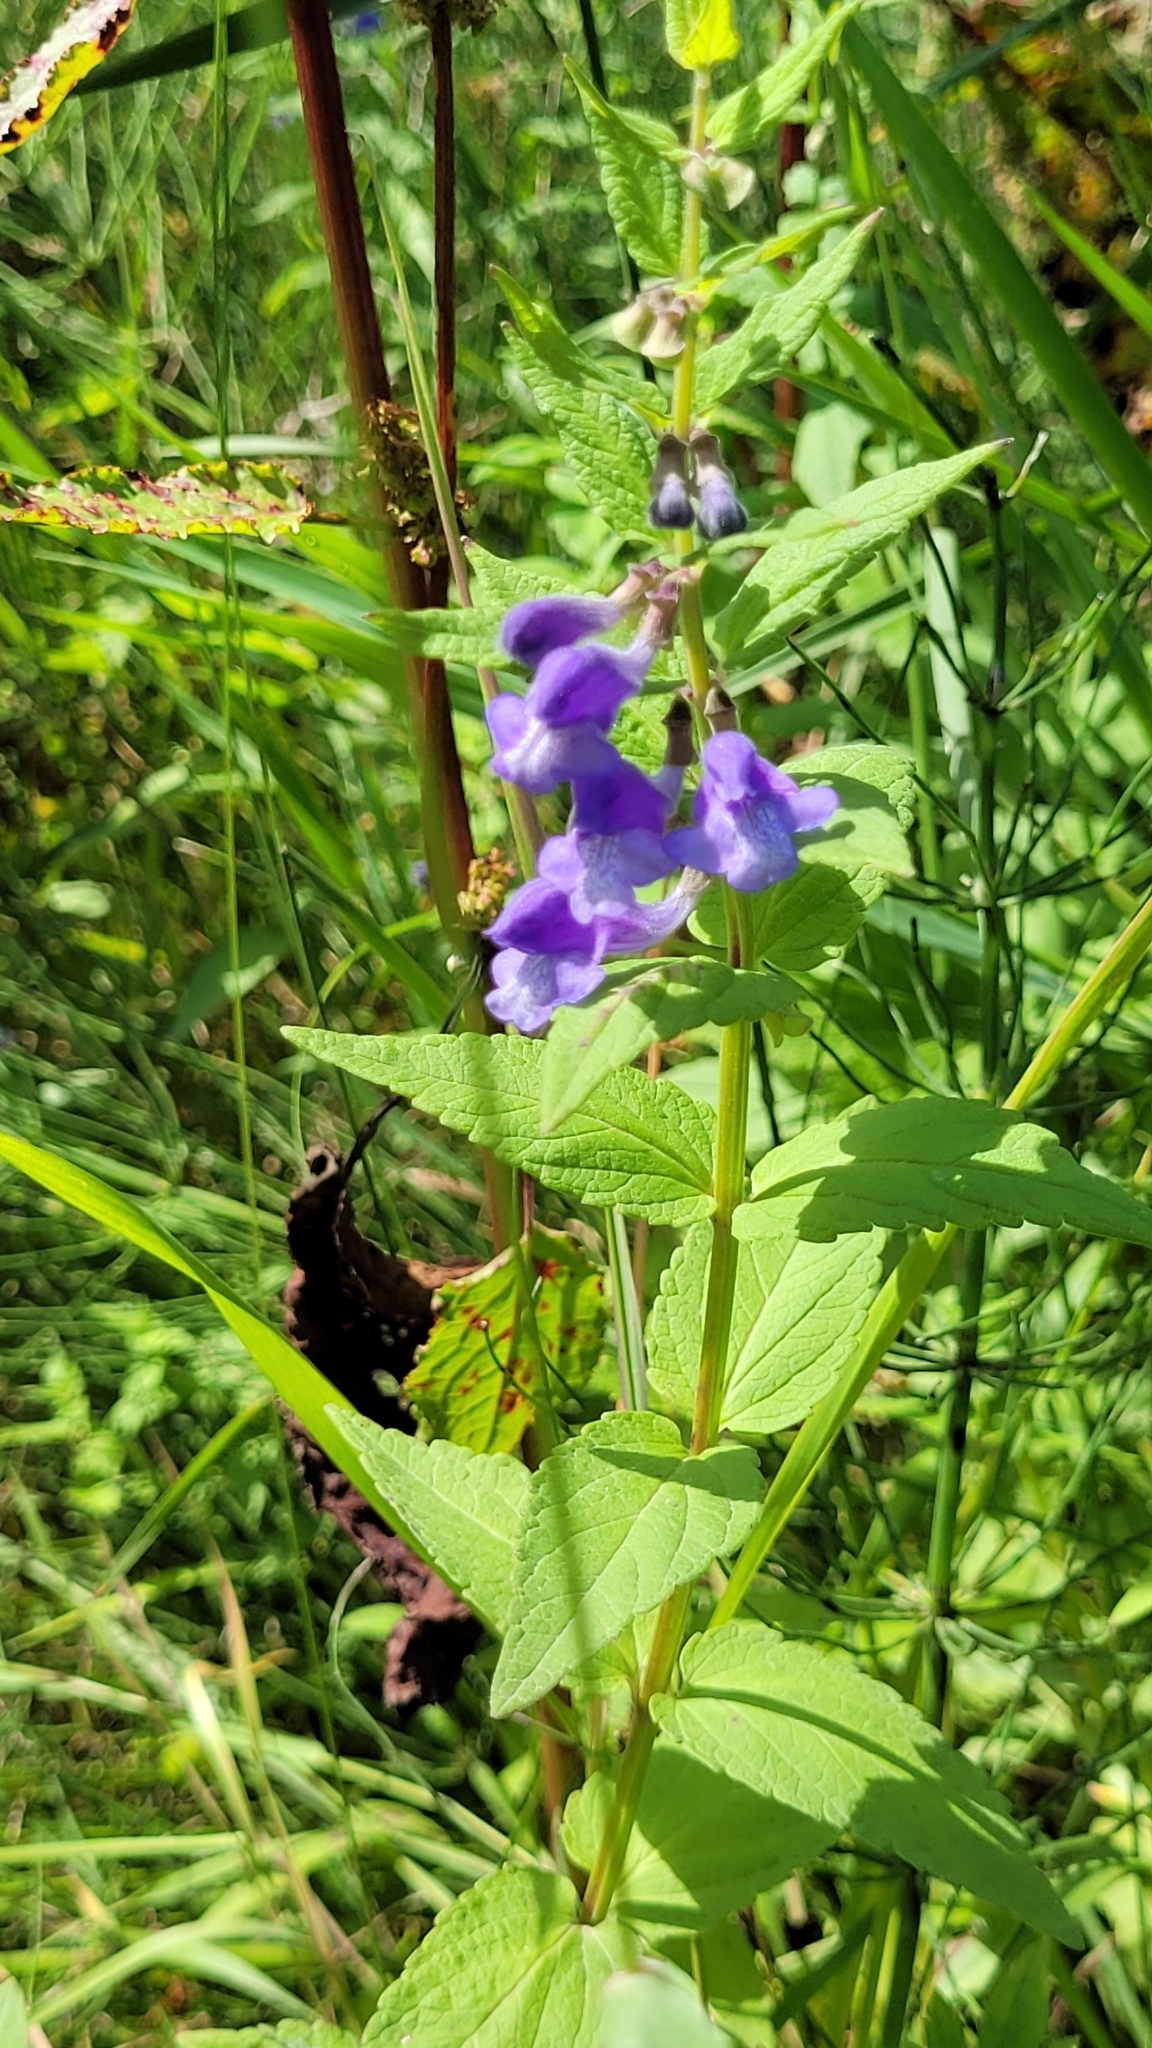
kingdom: Plantae
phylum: Tracheophyta
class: Magnoliopsida
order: Lamiales
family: Lamiaceae
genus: Scutellaria
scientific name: Scutellaria yezoensis
